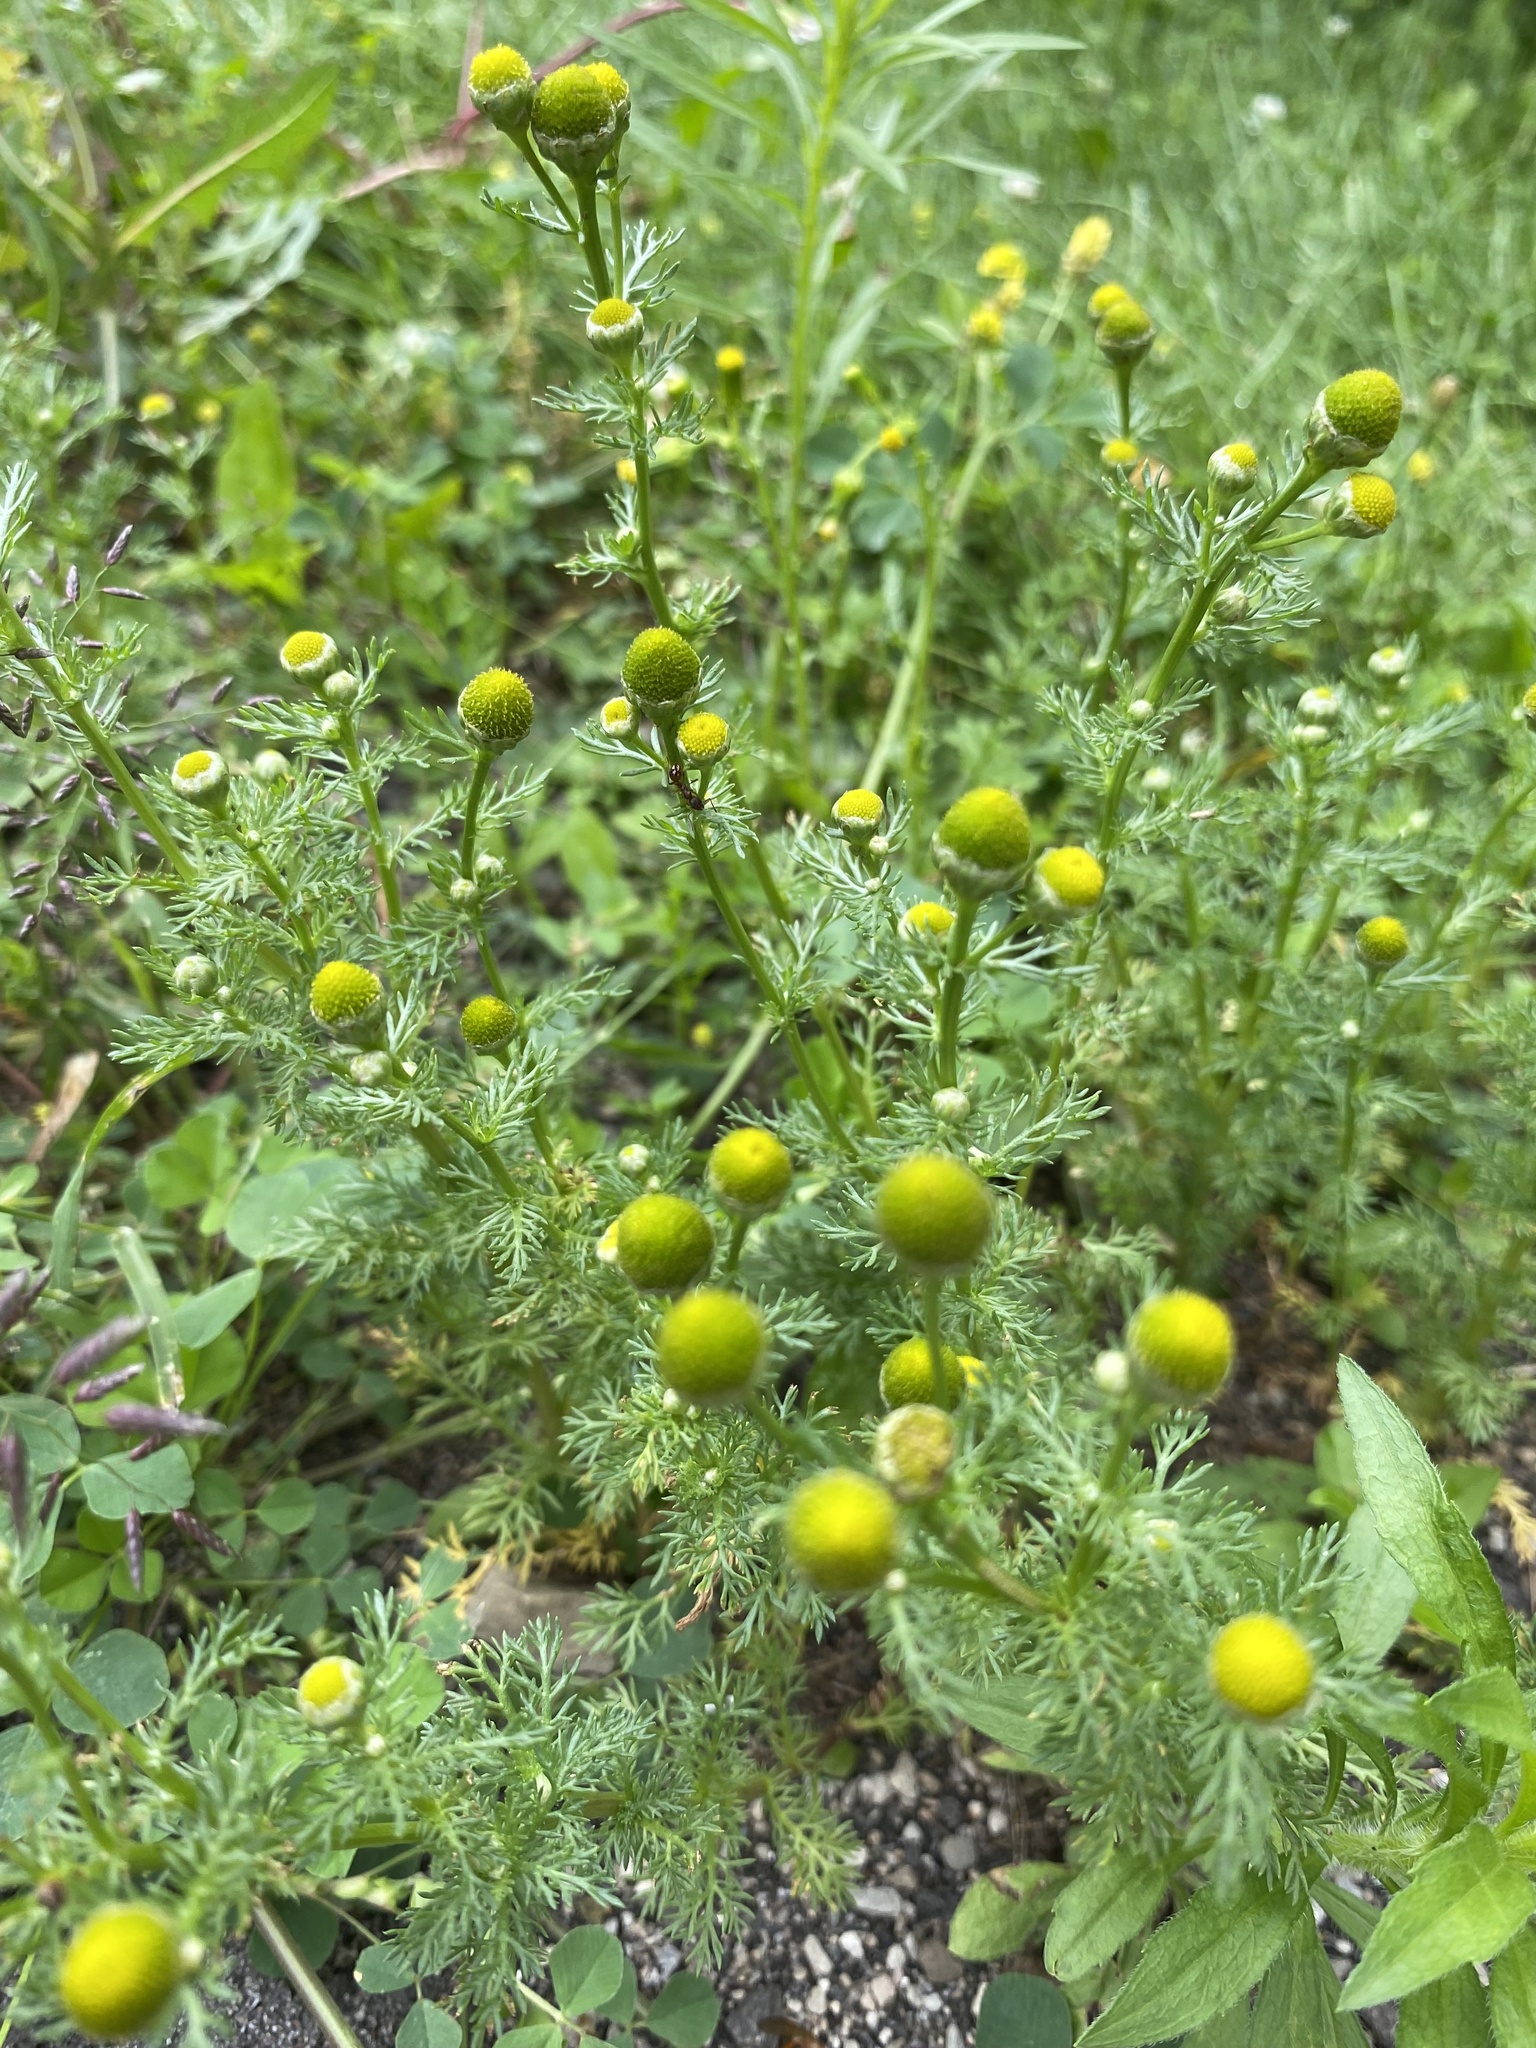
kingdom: Plantae
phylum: Tracheophyta
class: Magnoliopsida
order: Asterales
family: Asteraceae
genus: Matricaria
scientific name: Matricaria discoidea
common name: Disc mayweed
